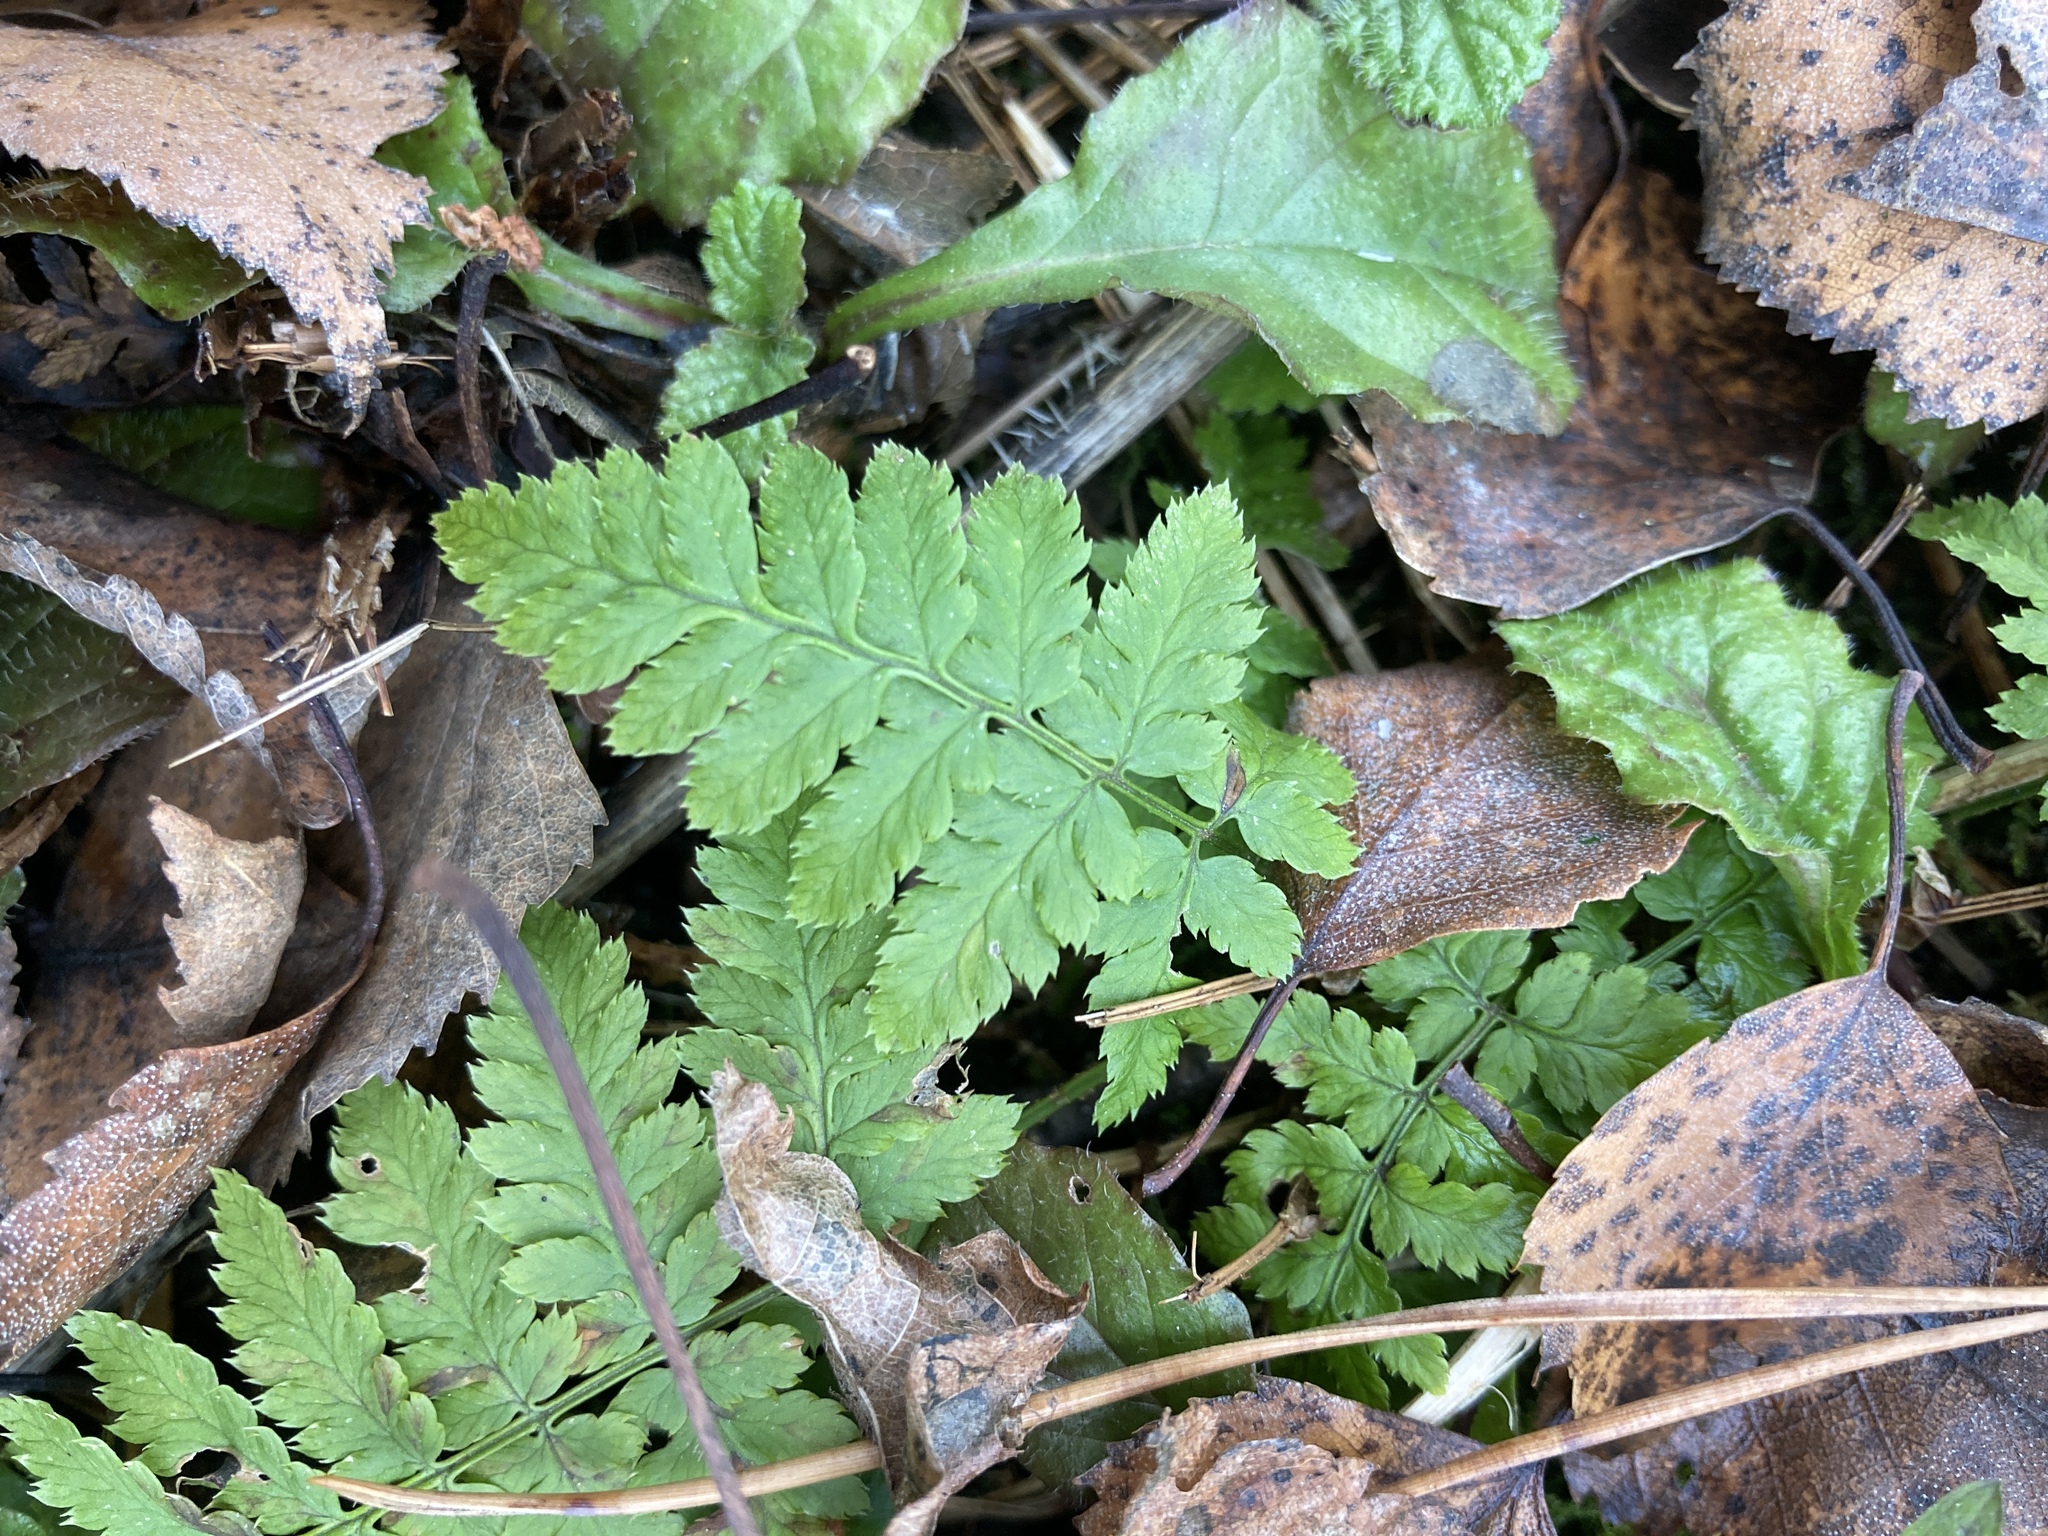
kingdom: Plantae
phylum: Tracheophyta
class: Polypodiopsida
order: Polypodiales
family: Dryopteridaceae
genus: Dryopteris
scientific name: Dryopteris carthusiana
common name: Narrow buckler-fern
